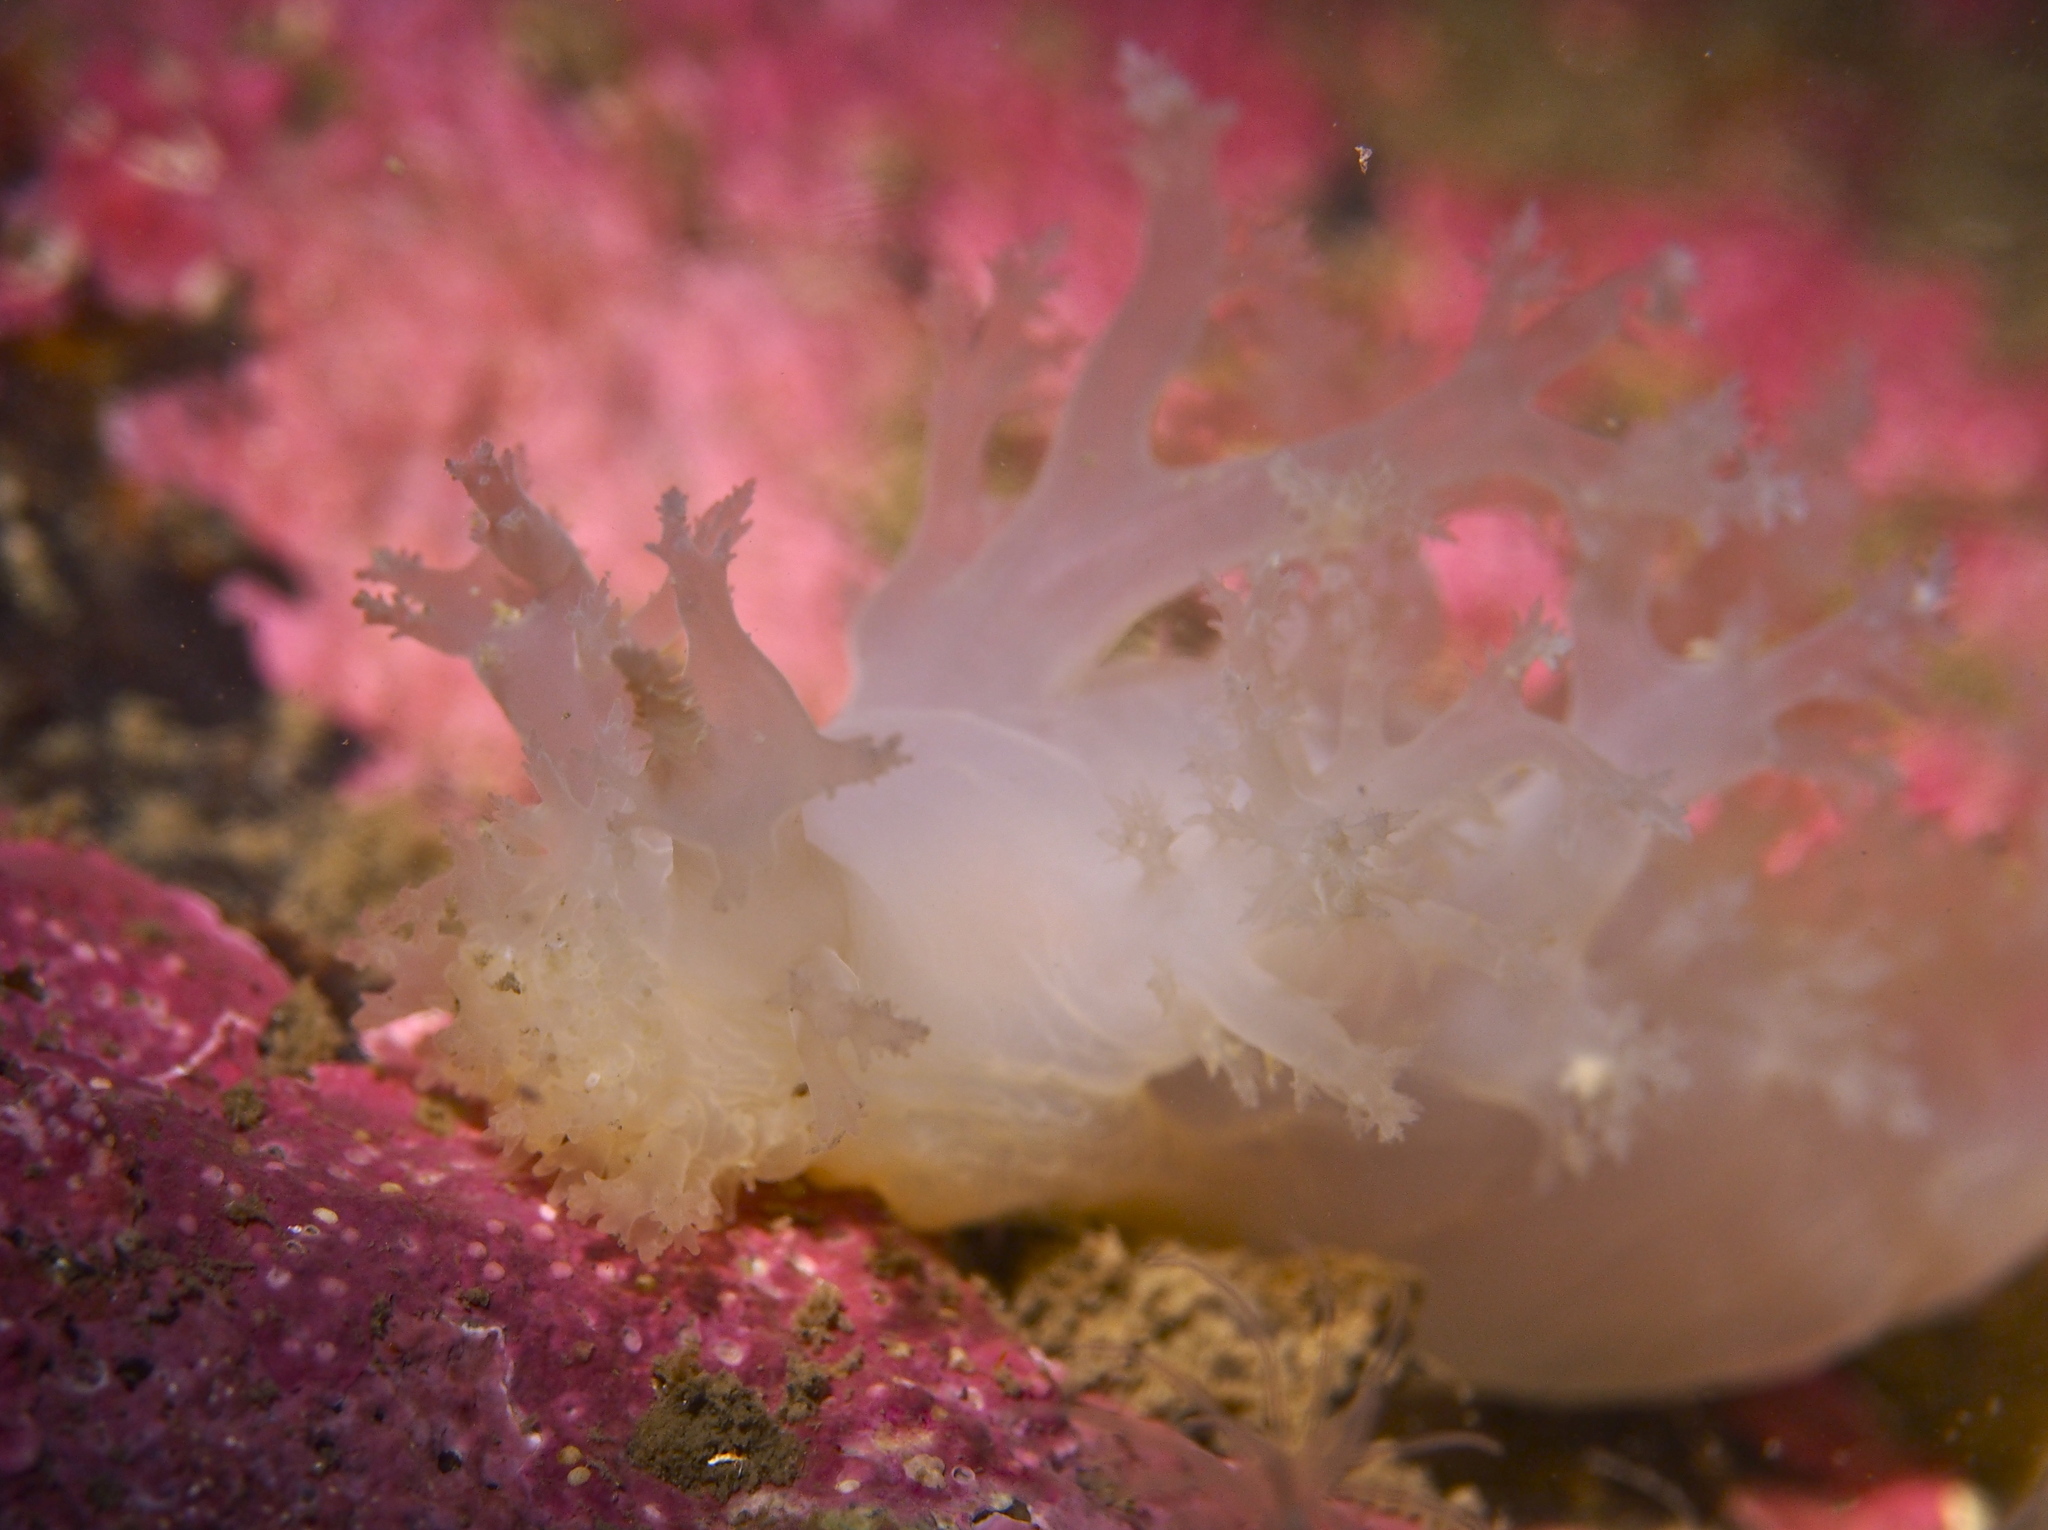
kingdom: Animalia
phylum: Mollusca
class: Gastropoda
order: Nudibranchia
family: Dendronotidae
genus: Dendronotus
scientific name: Dendronotus lacteus
